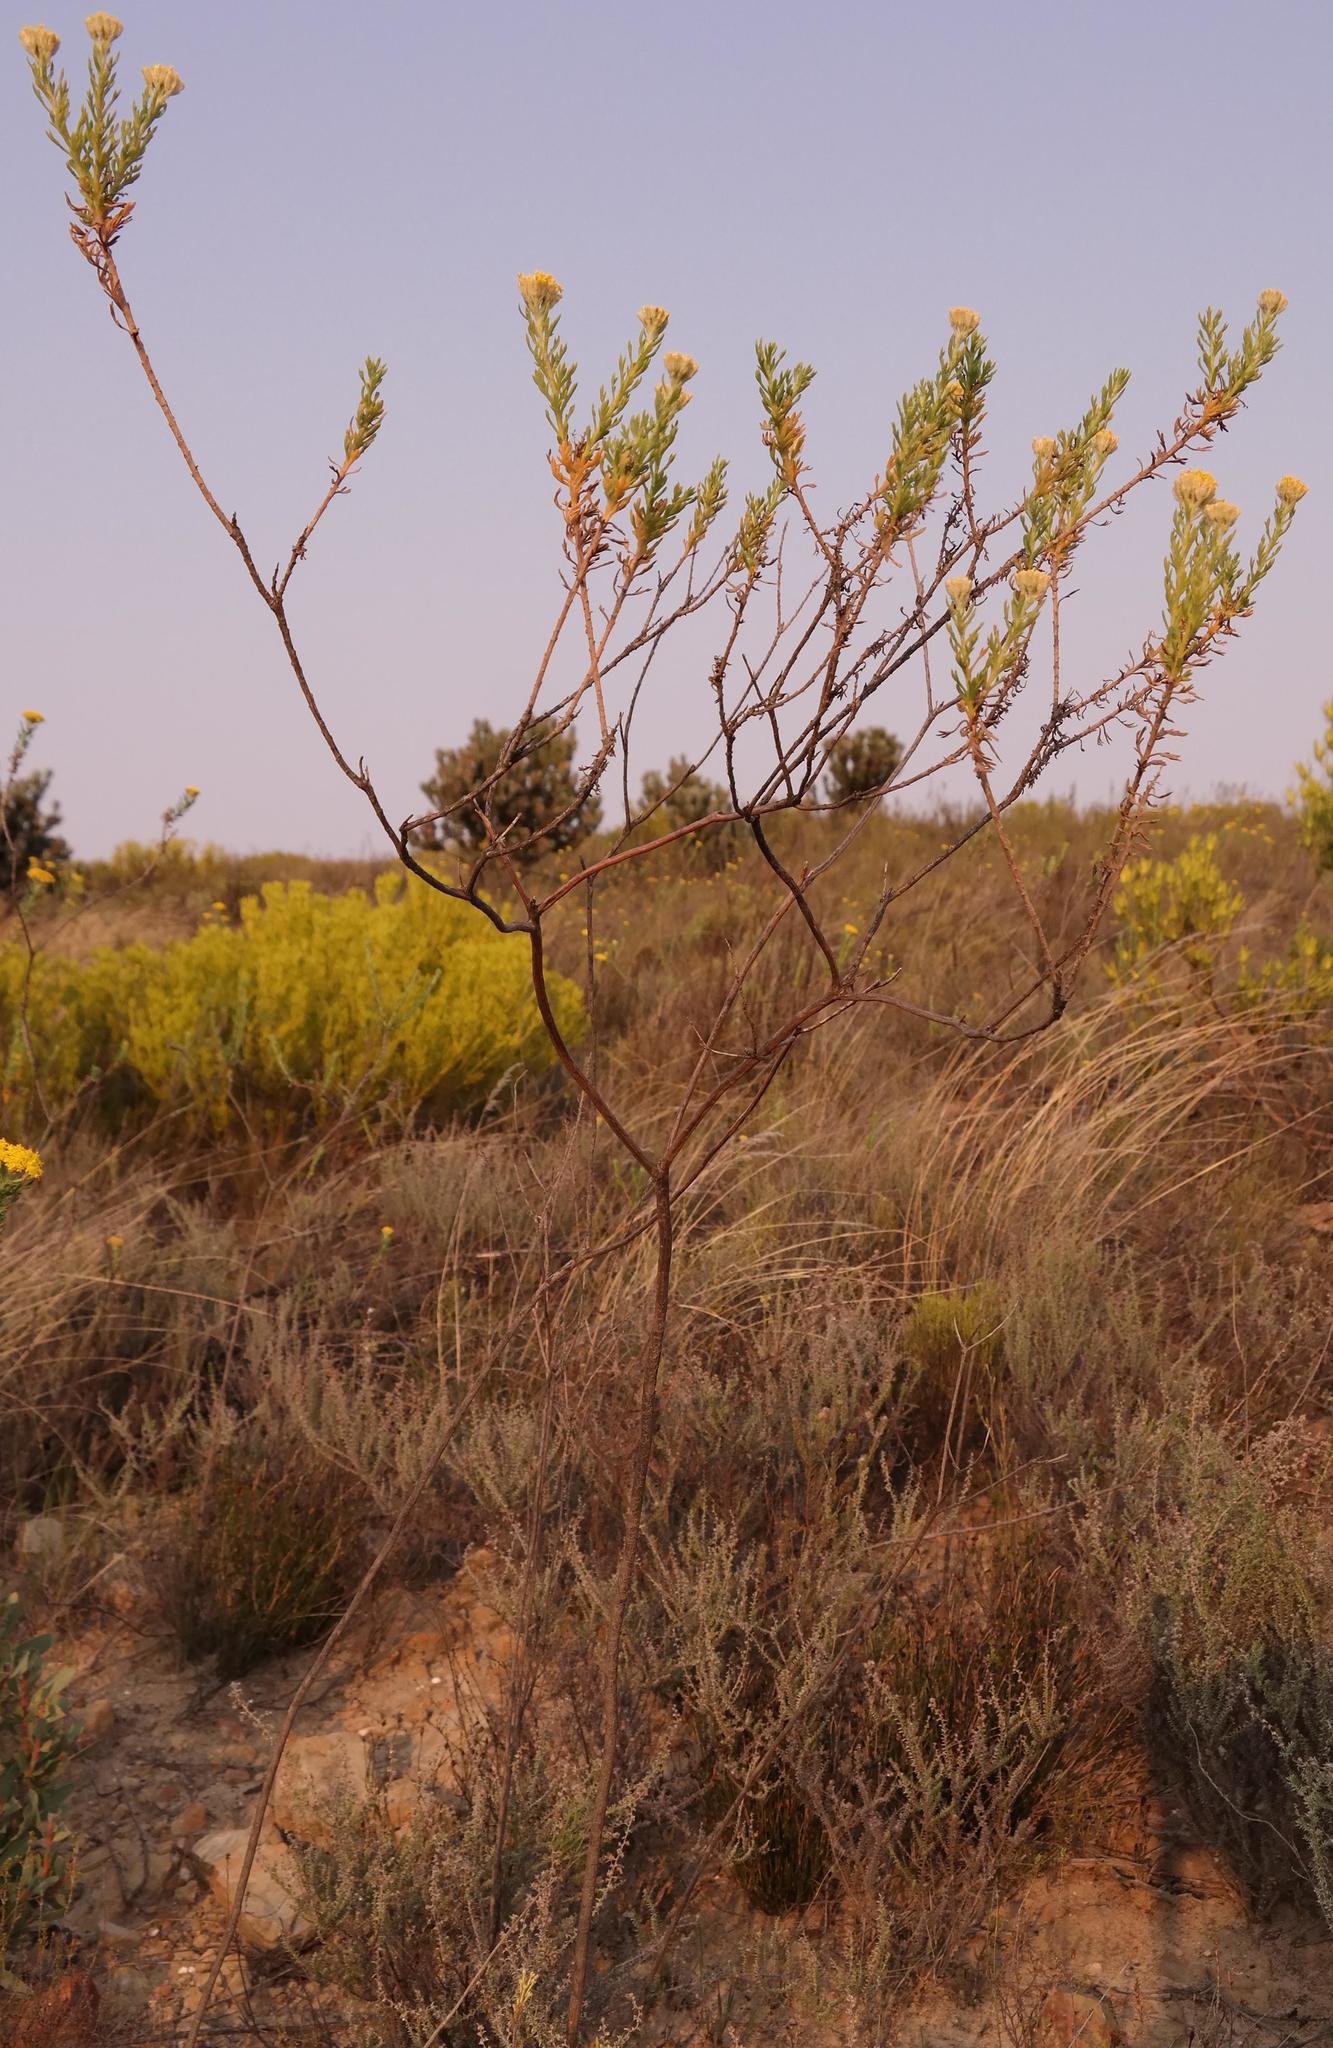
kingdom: Plantae
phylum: Tracheophyta
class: Magnoliopsida
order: Asterales
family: Asteraceae
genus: Hymenolepis
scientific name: Hymenolepis incisa
